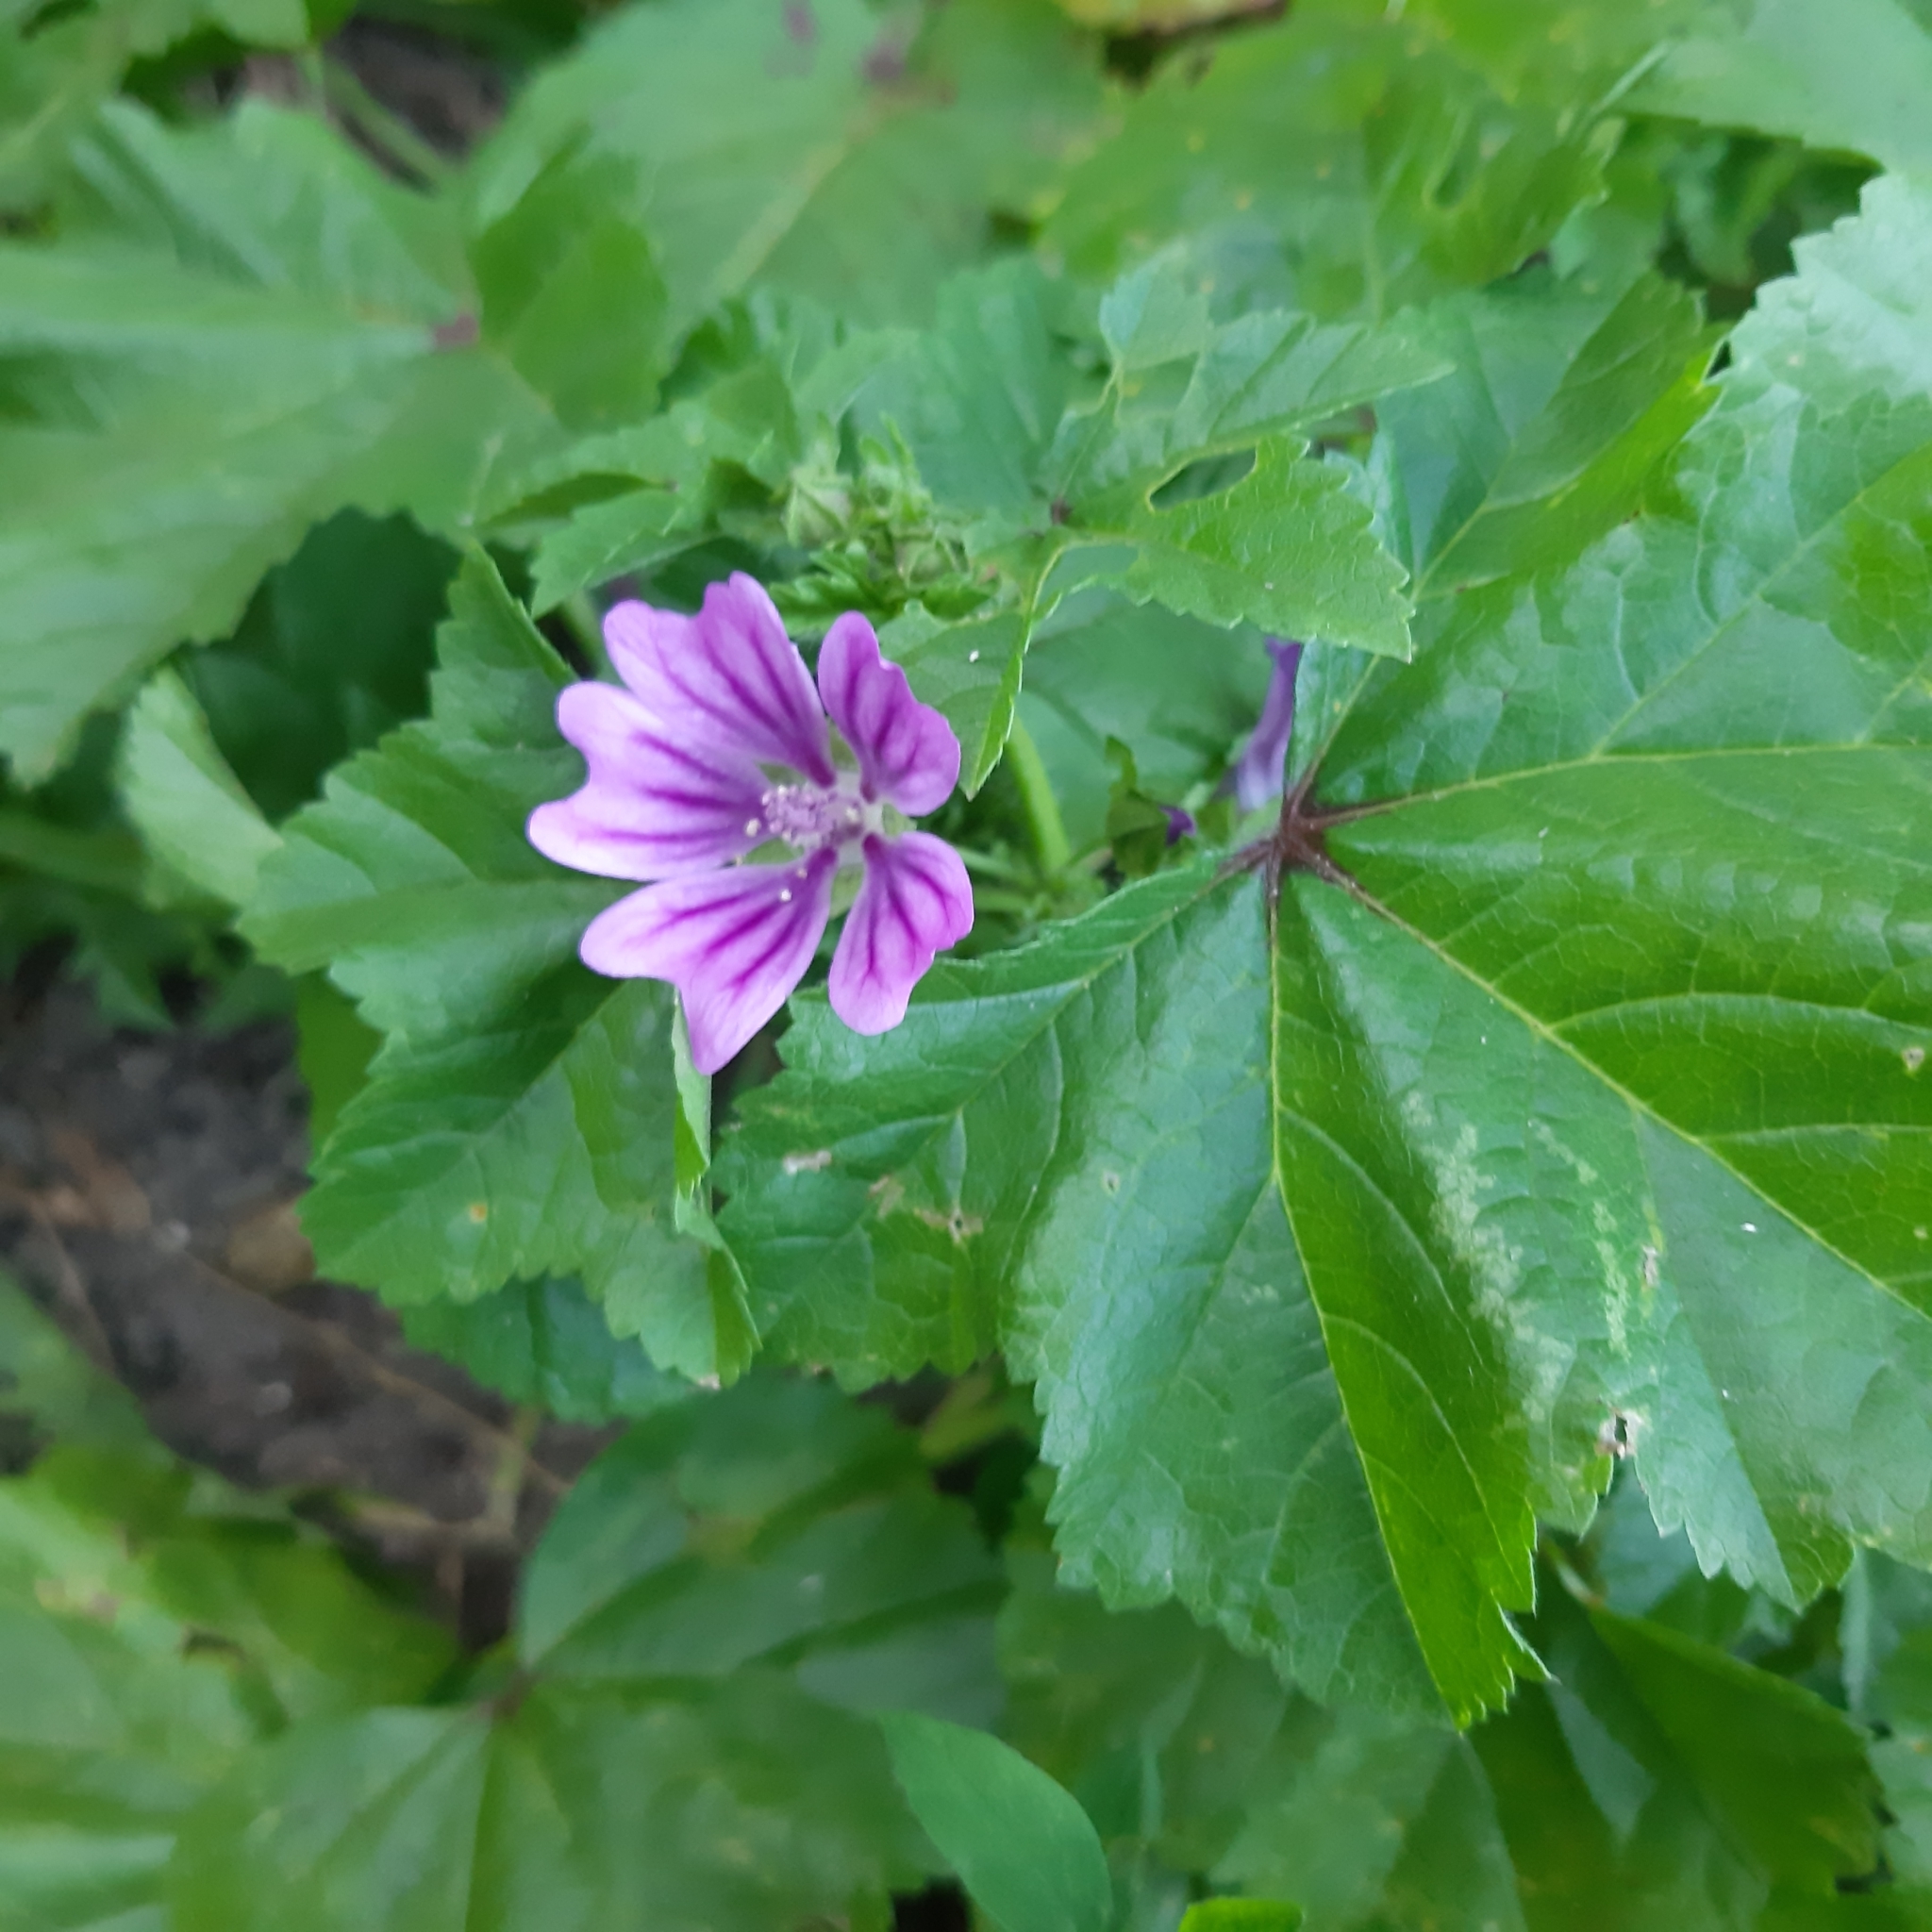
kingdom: Plantae
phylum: Tracheophyta
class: Magnoliopsida
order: Malvales
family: Malvaceae
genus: Malva
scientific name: Malva sylvestris
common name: Common mallow
